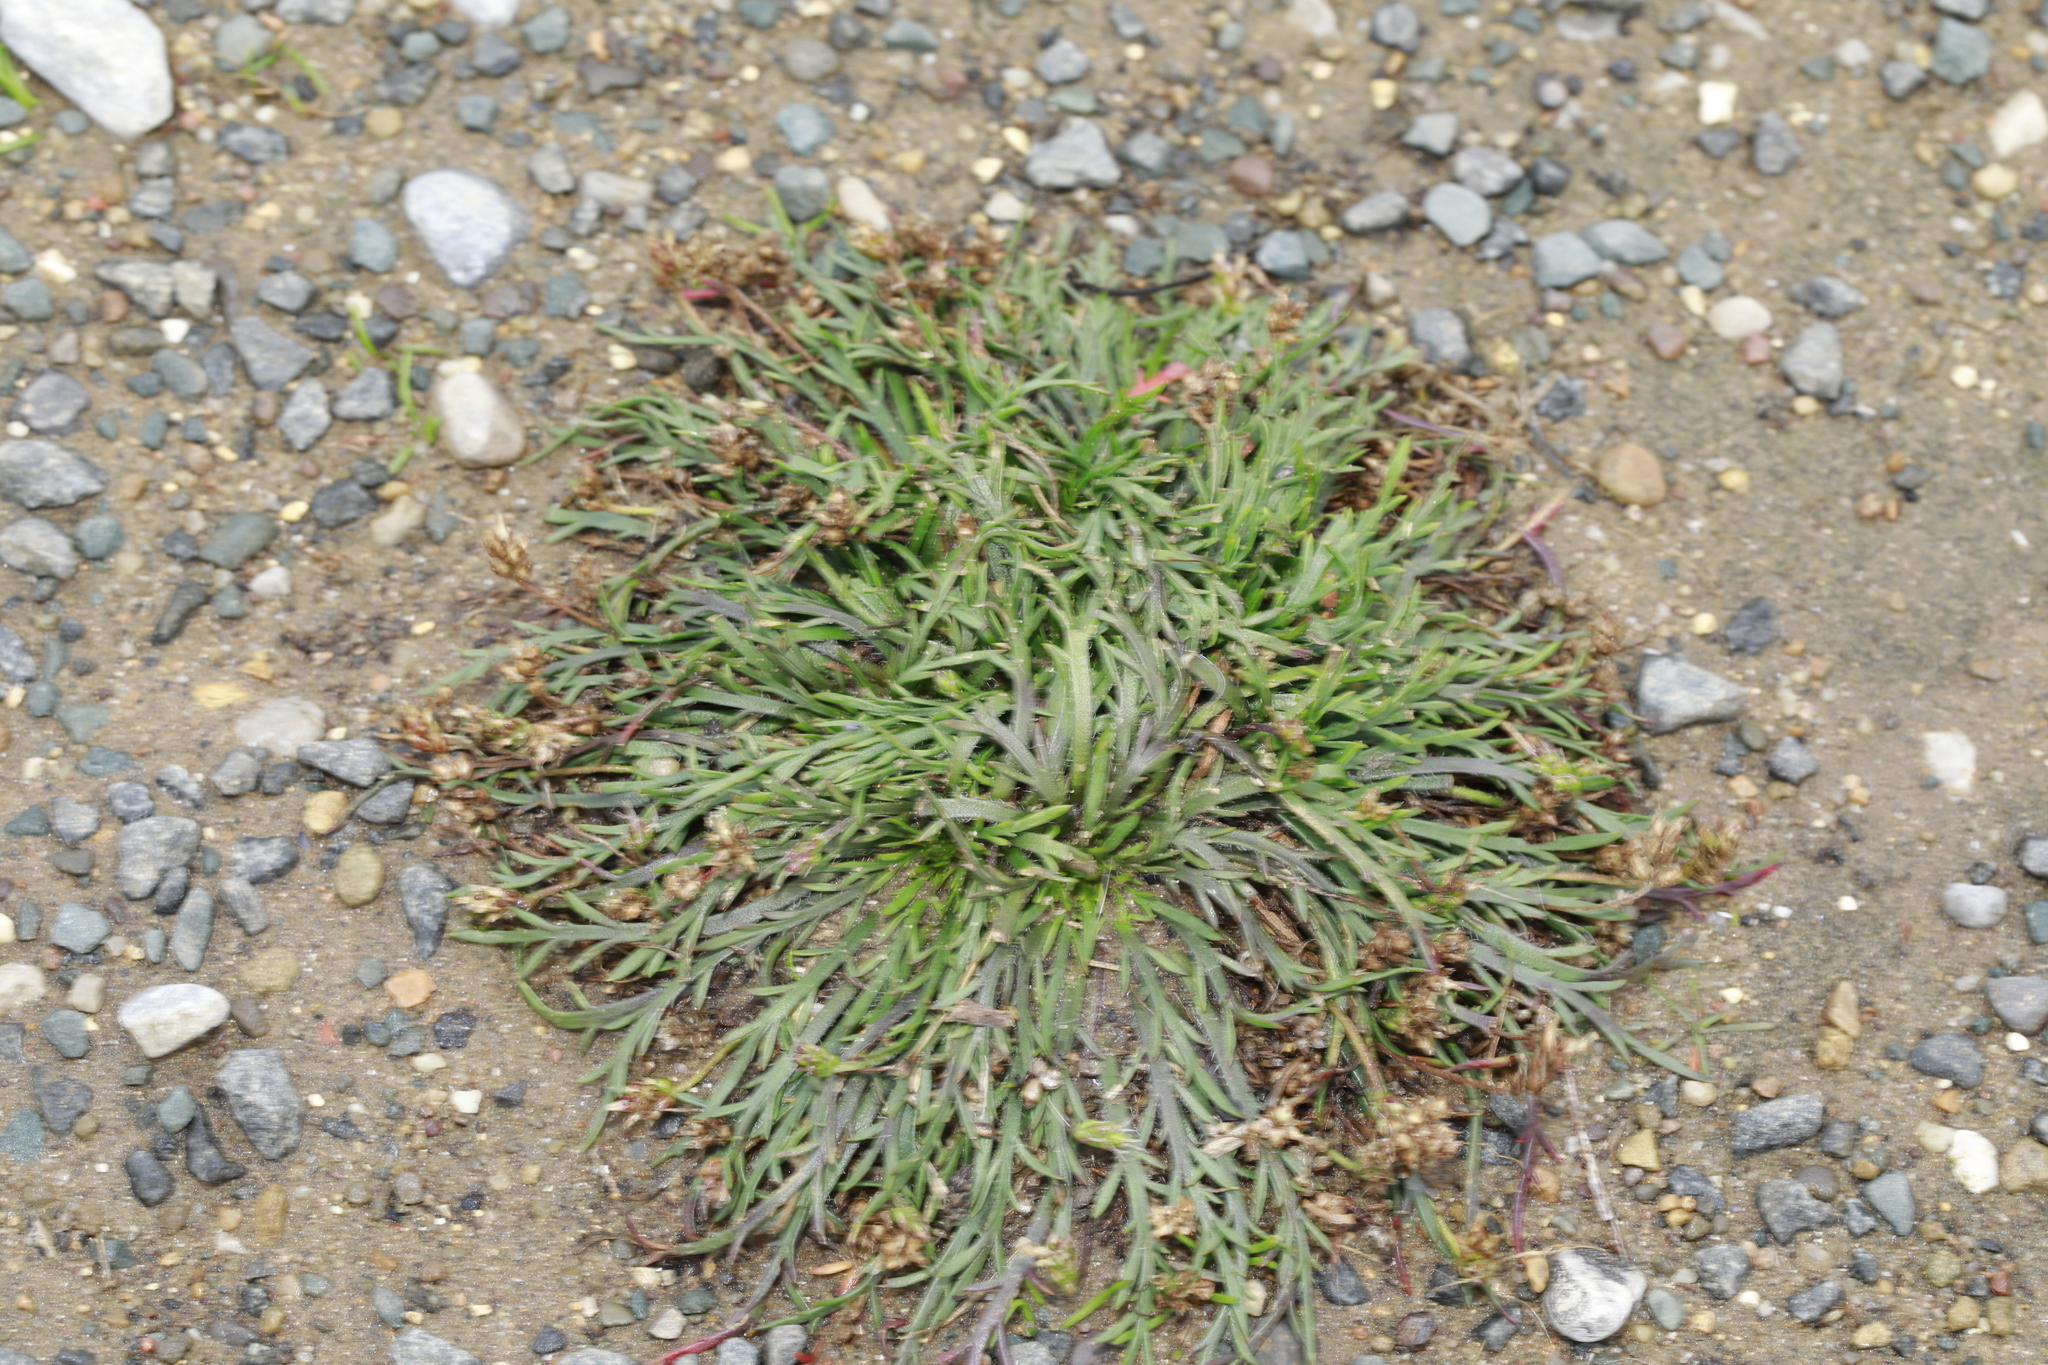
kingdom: Plantae
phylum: Tracheophyta
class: Magnoliopsida
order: Lamiales
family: Plantaginaceae
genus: Plantago
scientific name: Plantago coronopus
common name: Buck's-horn plantain
